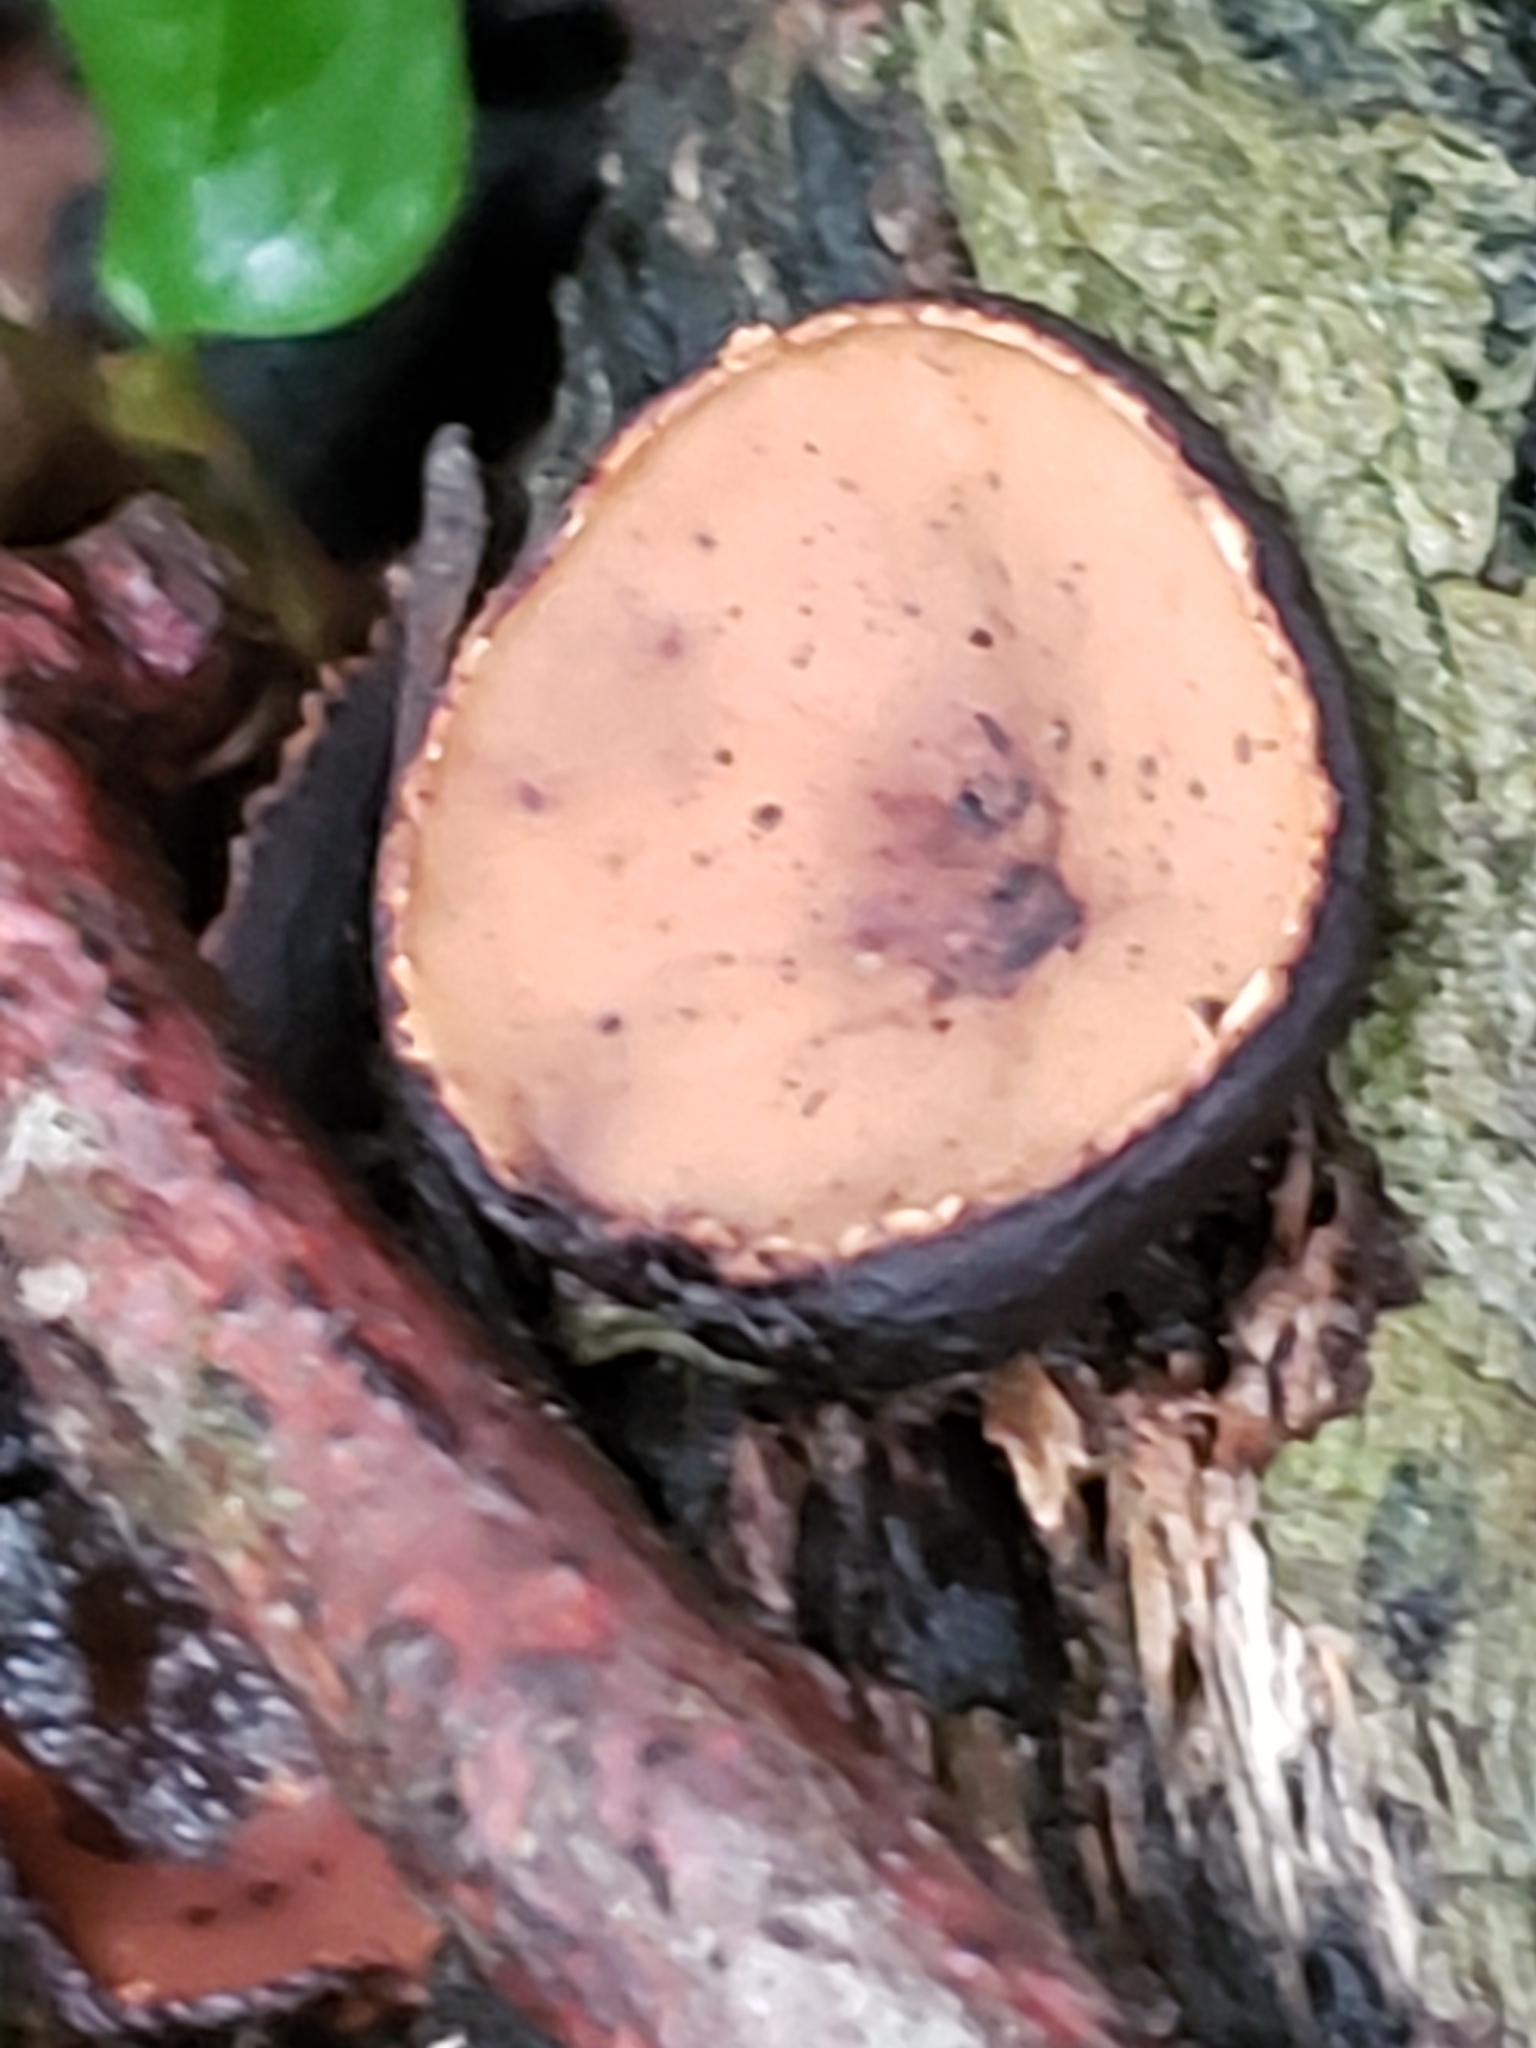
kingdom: Fungi
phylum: Ascomycota
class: Pezizomycetes
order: Pezizales
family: Sarcosomataceae
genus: Galiella
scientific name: Galiella rufa
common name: Hairy rubber cup
